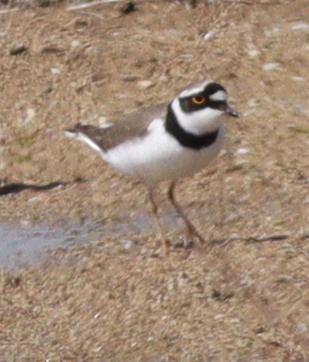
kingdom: Animalia
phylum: Chordata
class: Aves
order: Charadriiformes
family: Charadriidae
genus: Charadrius
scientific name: Charadrius dubius
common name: Little ringed plover
